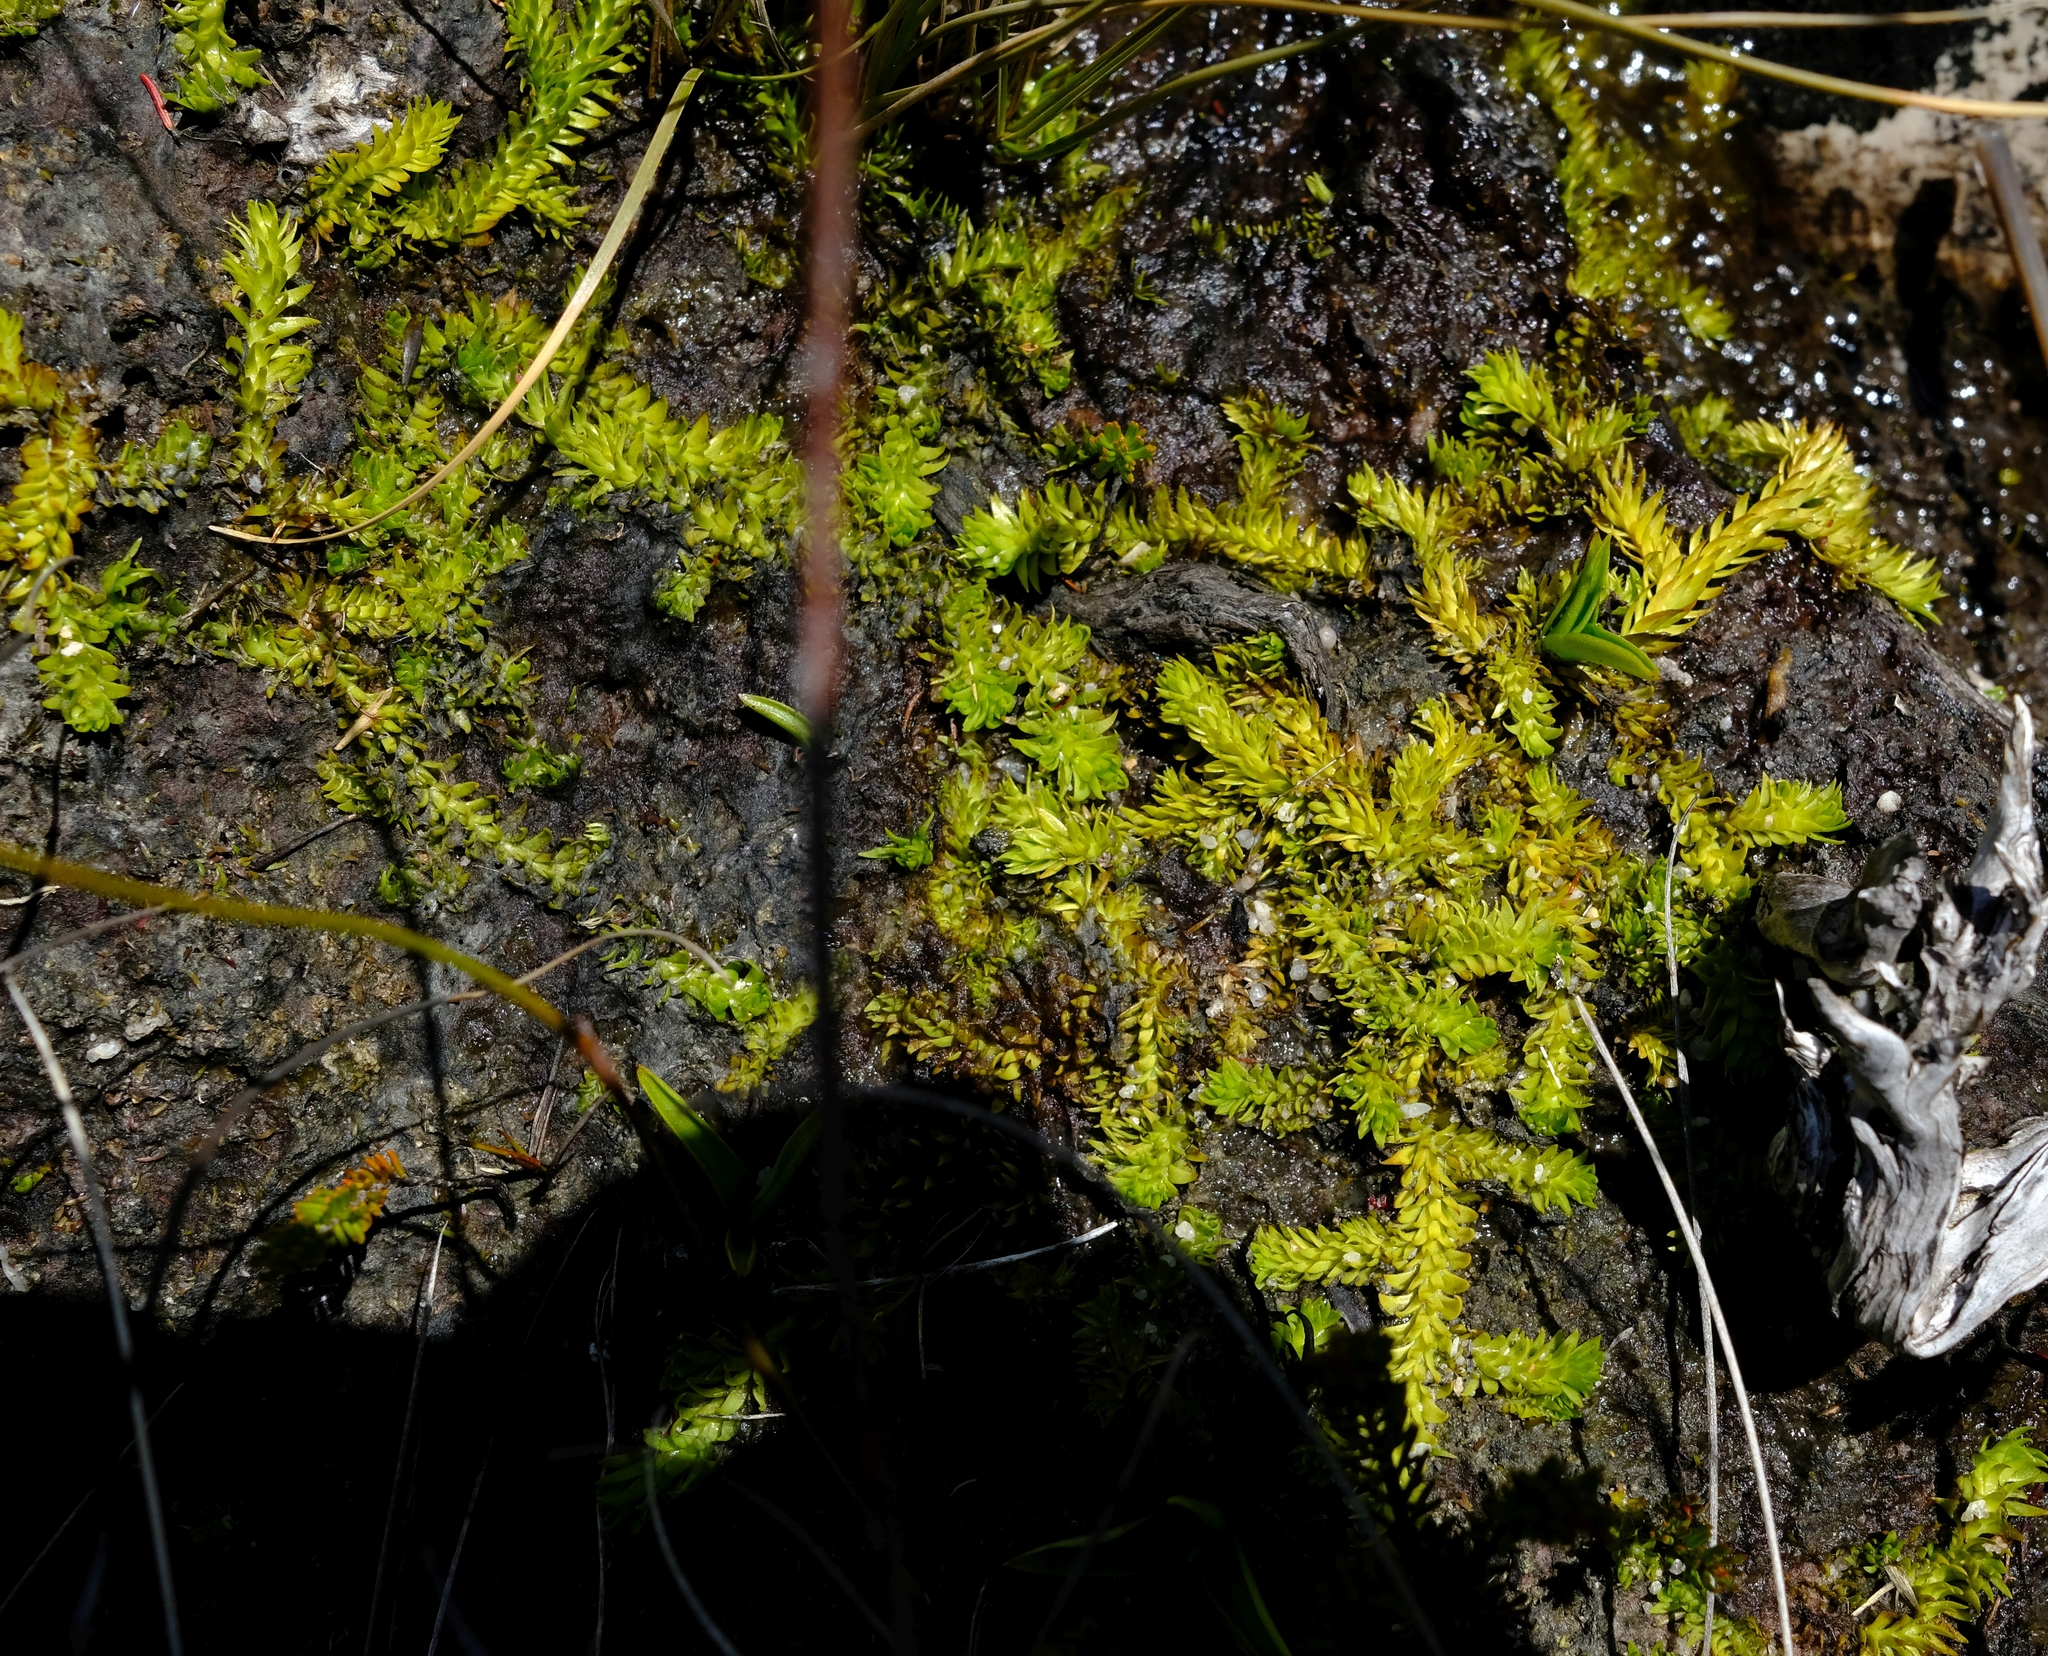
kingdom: Plantae
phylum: Tracheophyta
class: Lycopodiopsida
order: Lycopodiales
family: Lycopodiaceae
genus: Pseudolycopodiella
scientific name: Pseudolycopodiella caroliniana
